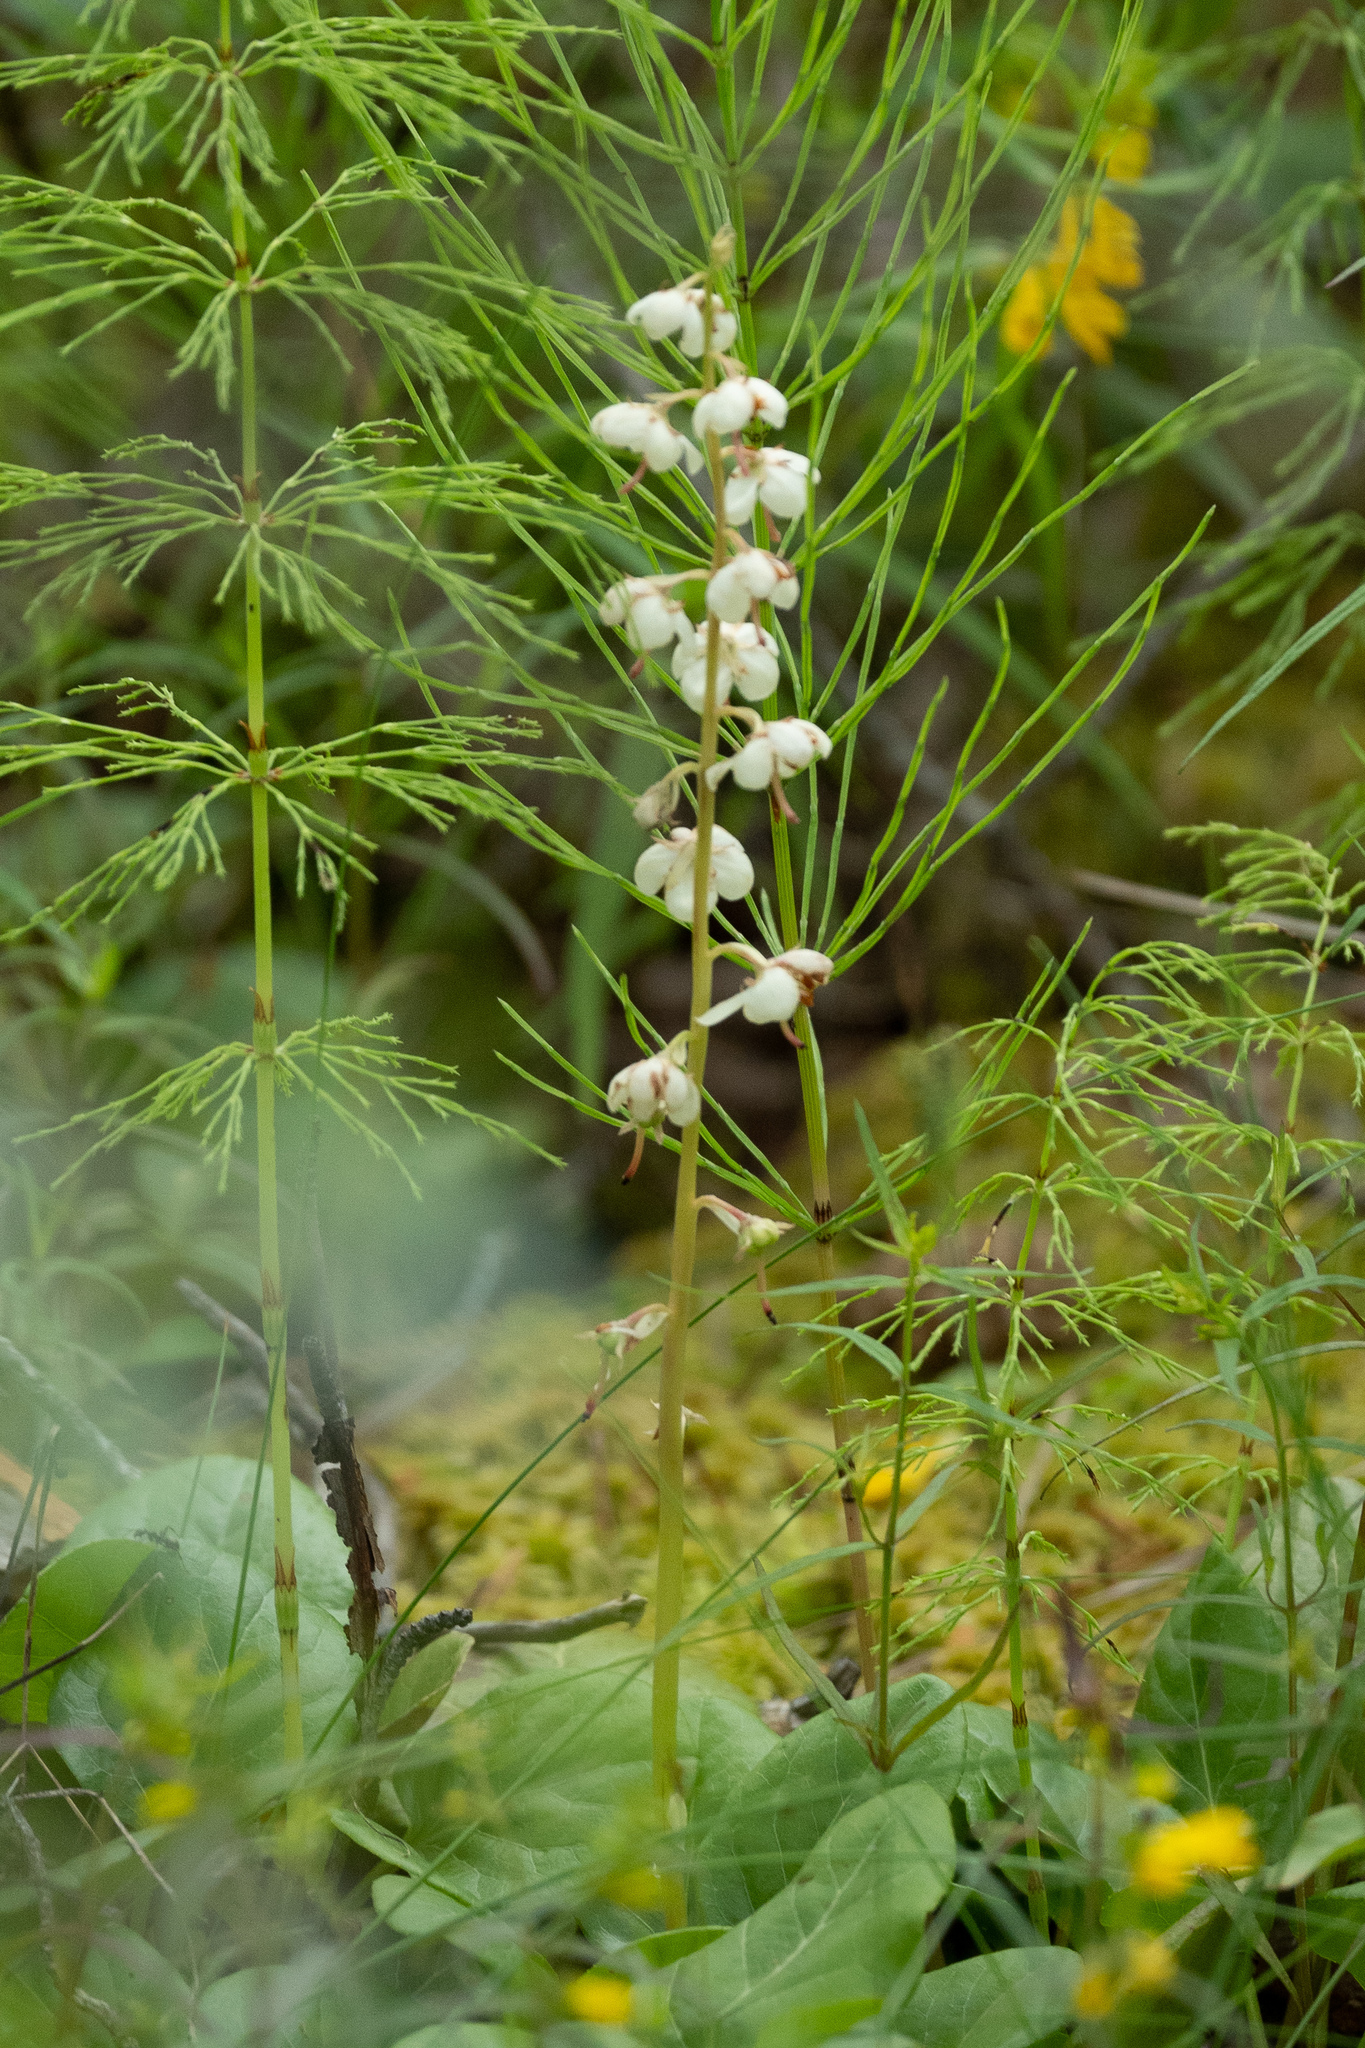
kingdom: Plantae
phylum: Tracheophyta
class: Magnoliopsida
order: Ericales
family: Ericaceae
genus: Pyrola
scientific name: Pyrola rotundifolia
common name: Round-leaved wintergreen
